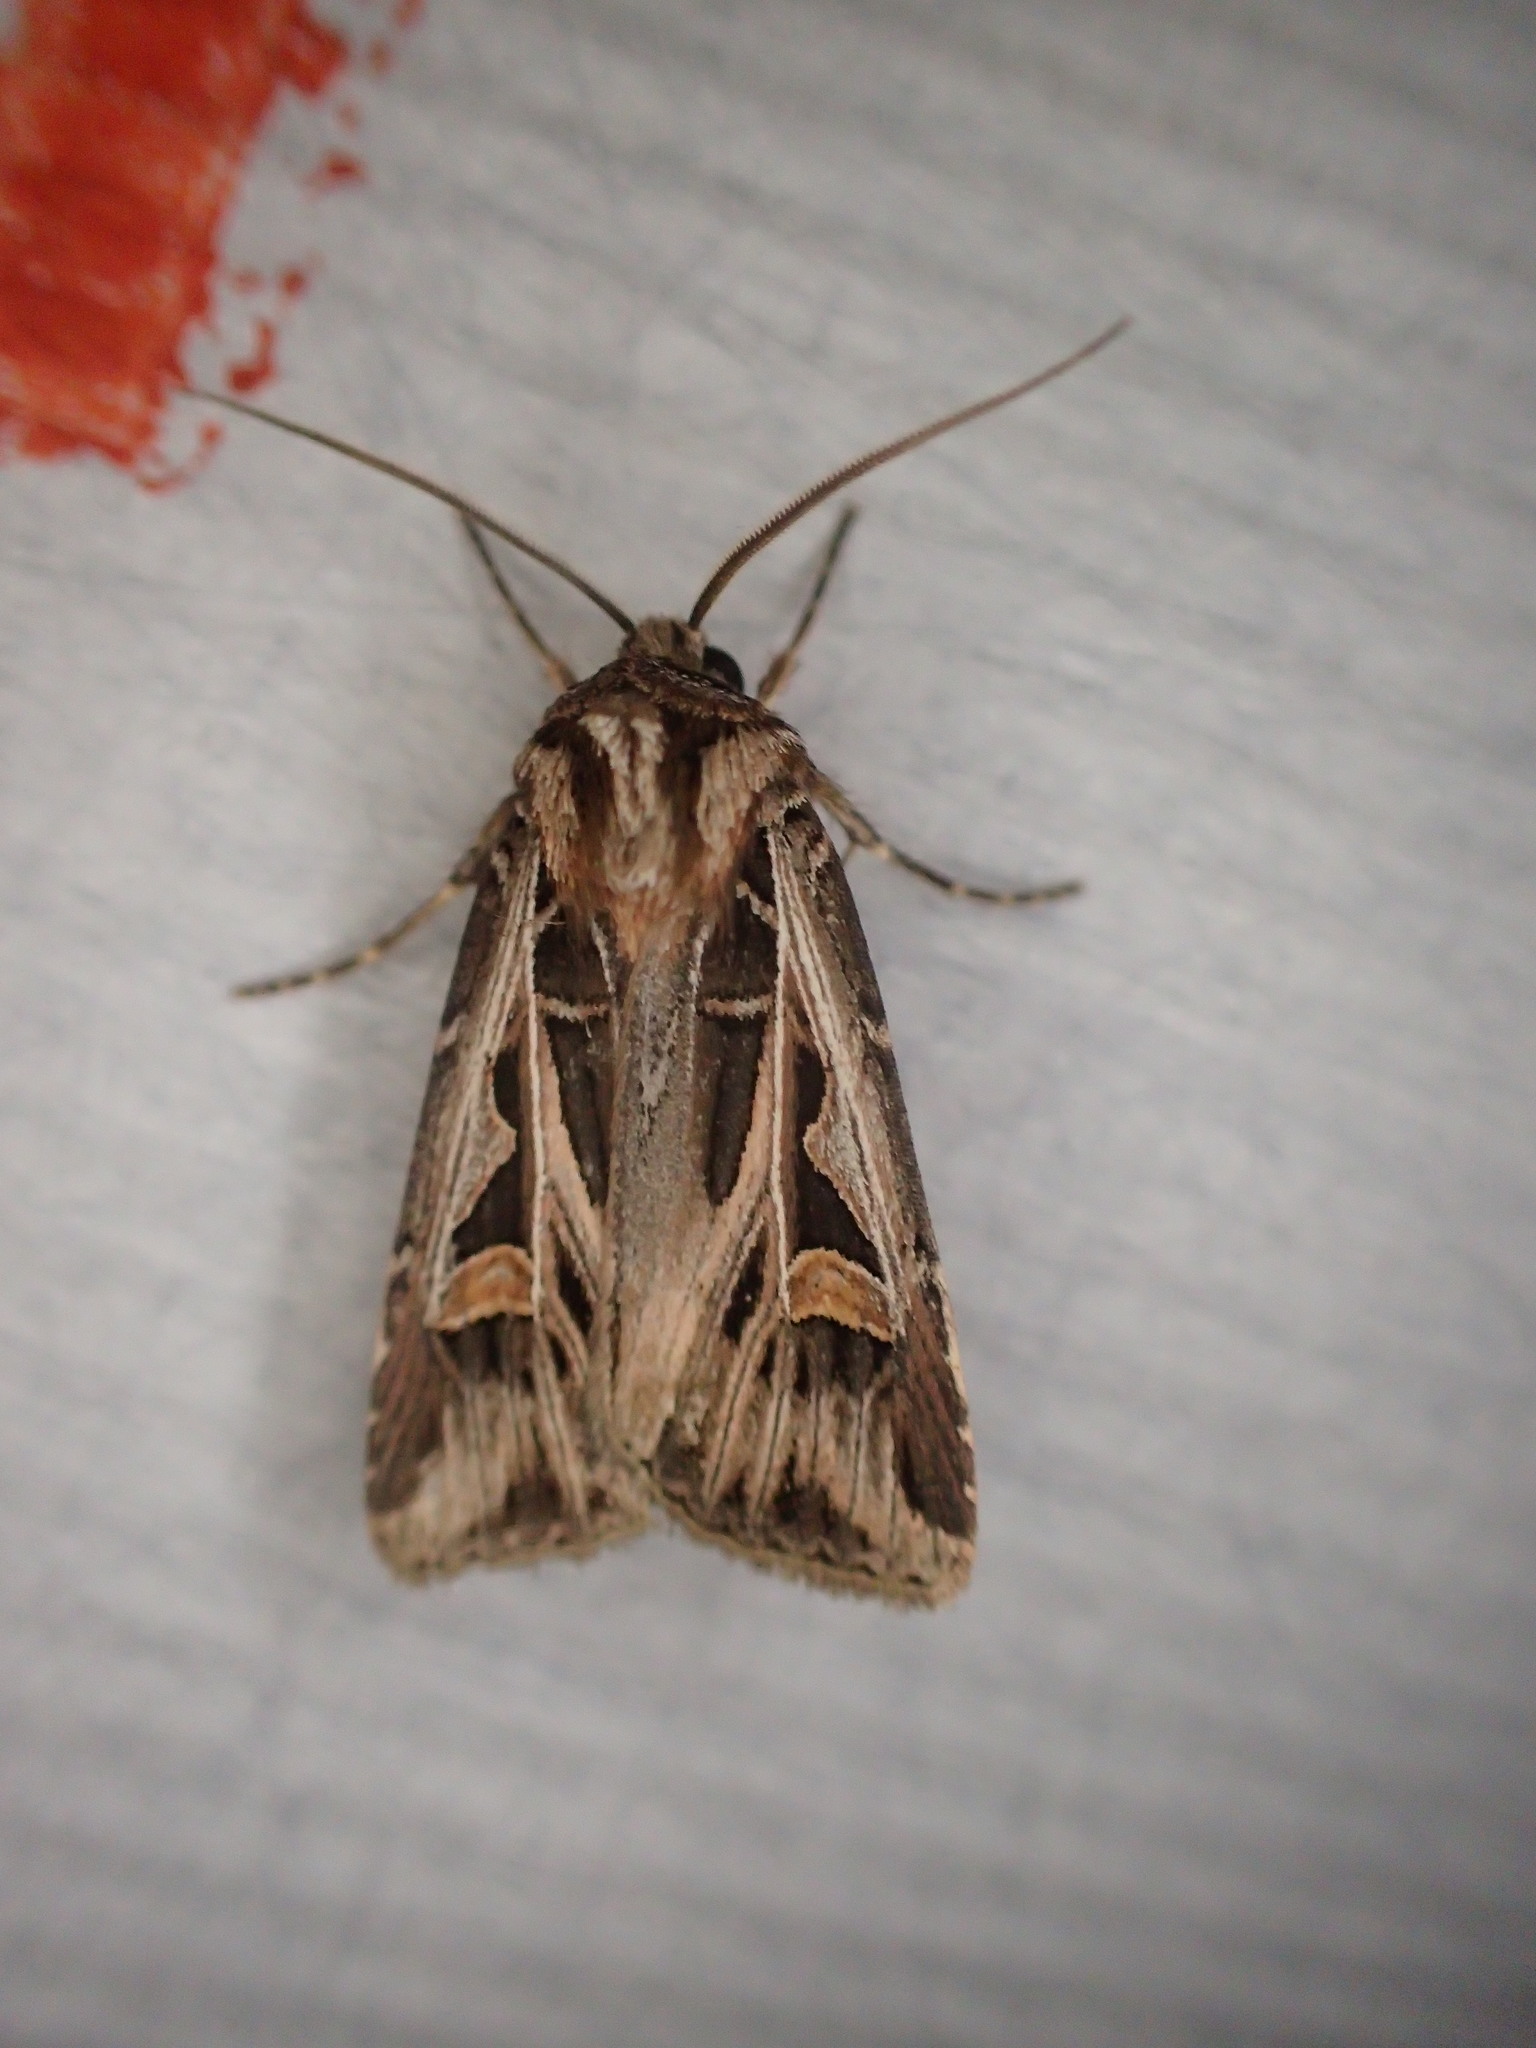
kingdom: Animalia
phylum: Arthropoda
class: Insecta
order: Lepidoptera
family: Noctuidae
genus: Feltia
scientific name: Feltia jaculifera
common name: Dingy cutworm moth
